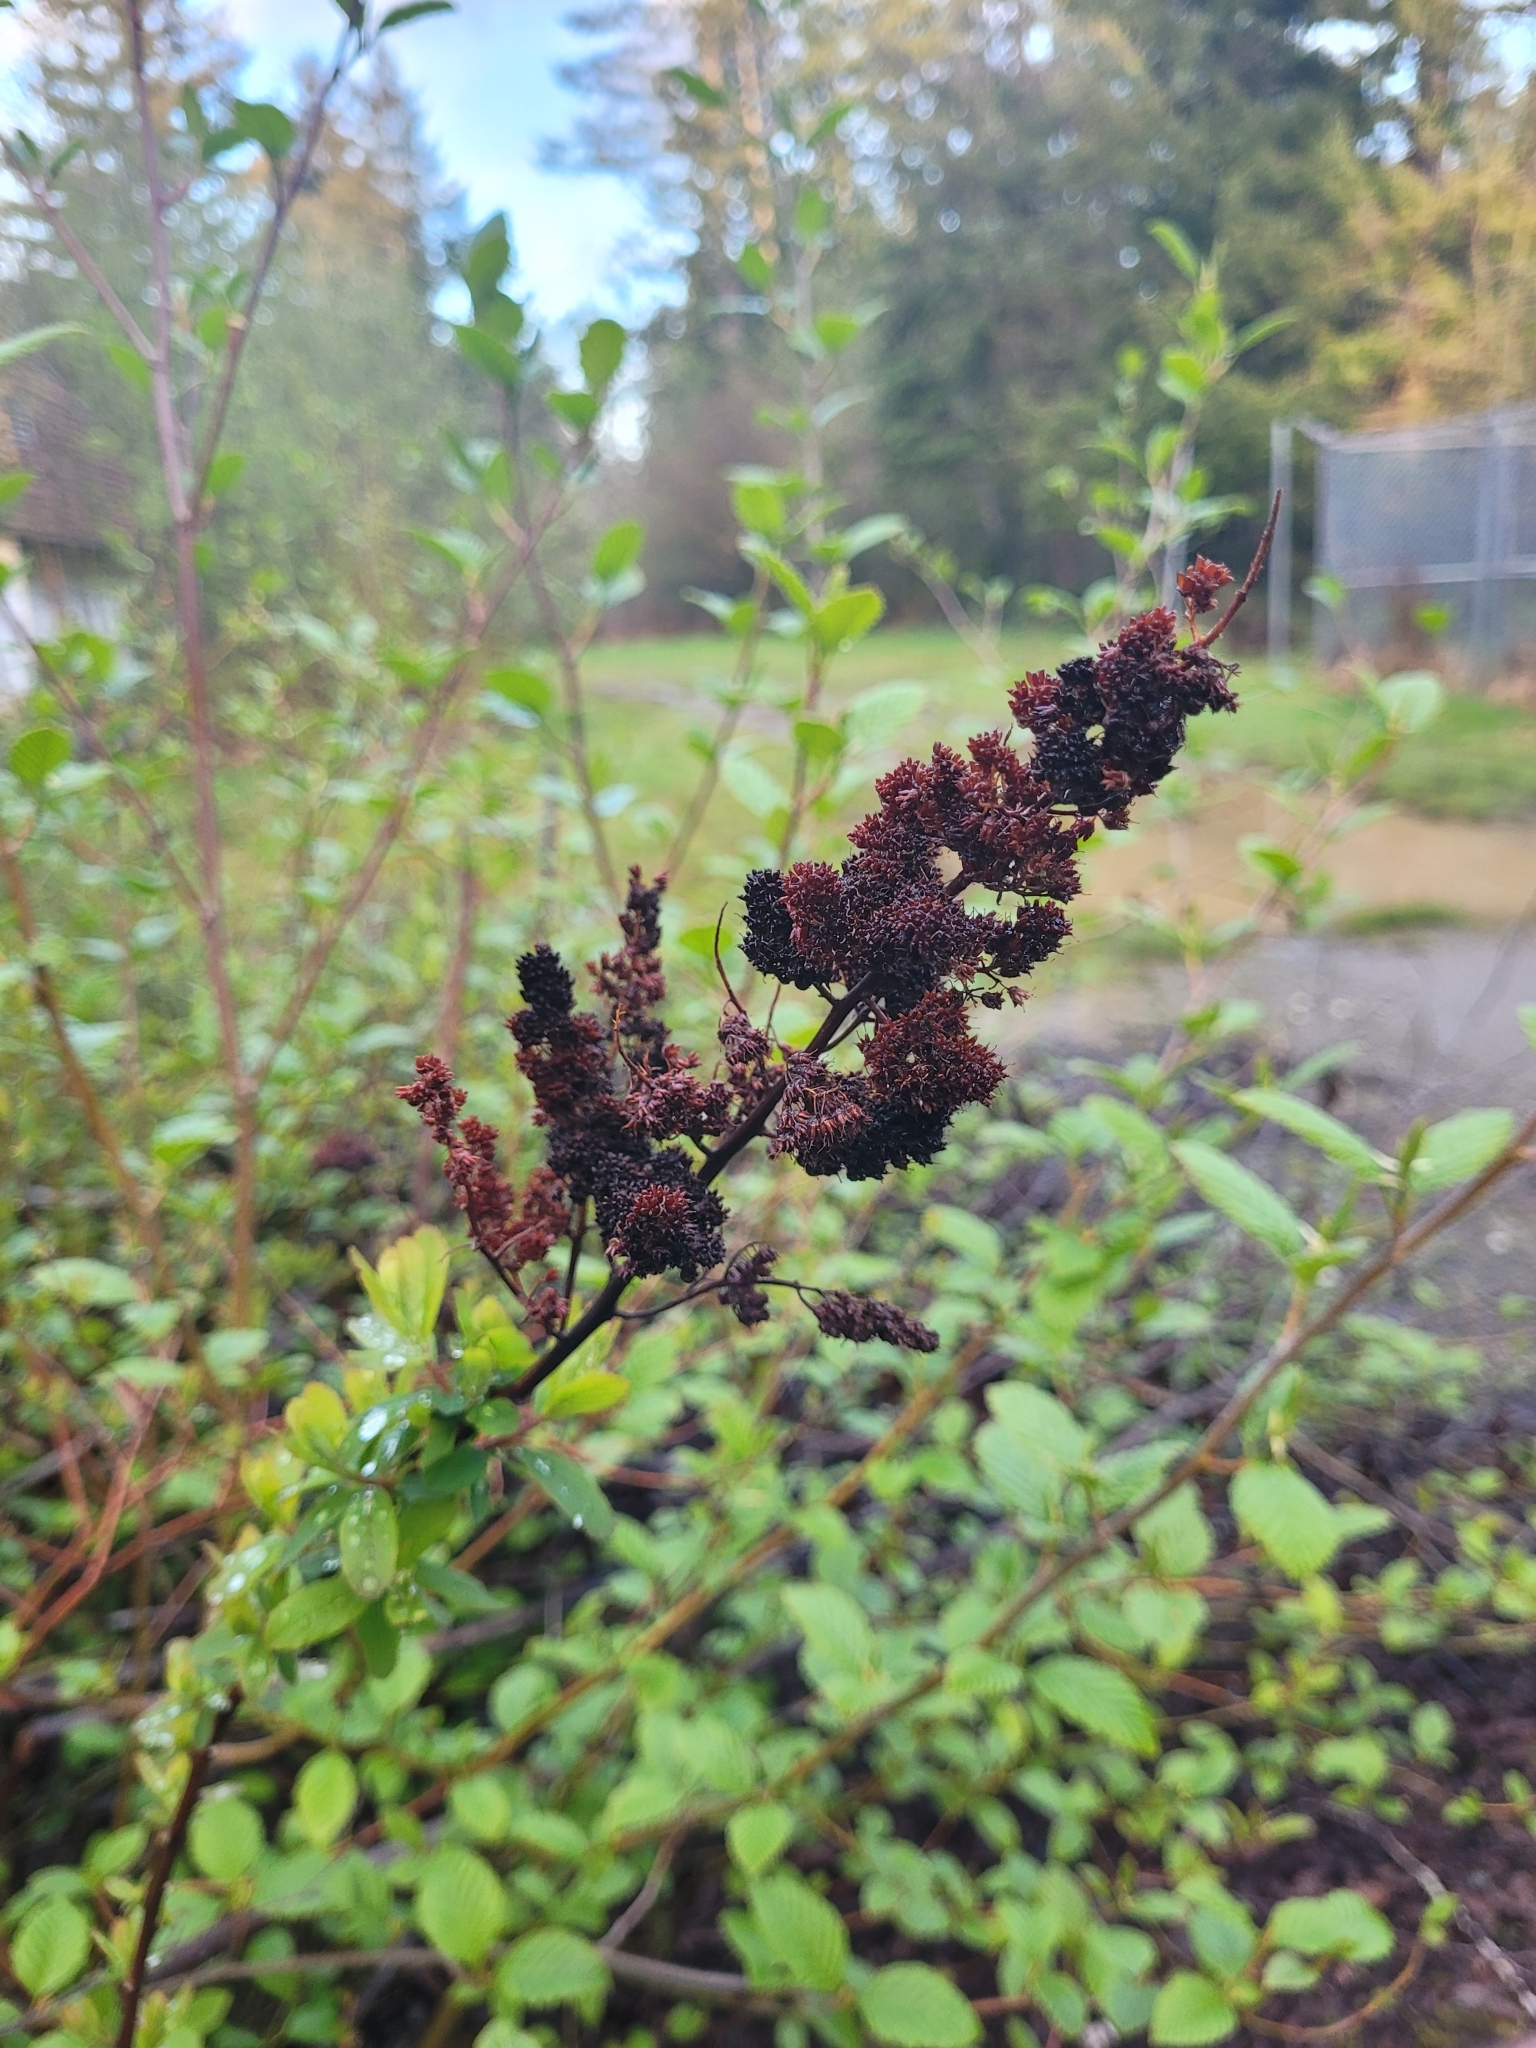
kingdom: Plantae
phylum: Tracheophyta
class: Magnoliopsida
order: Rosales
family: Rosaceae
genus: Spiraea
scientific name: Spiraea douglasii
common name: Steeplebush
